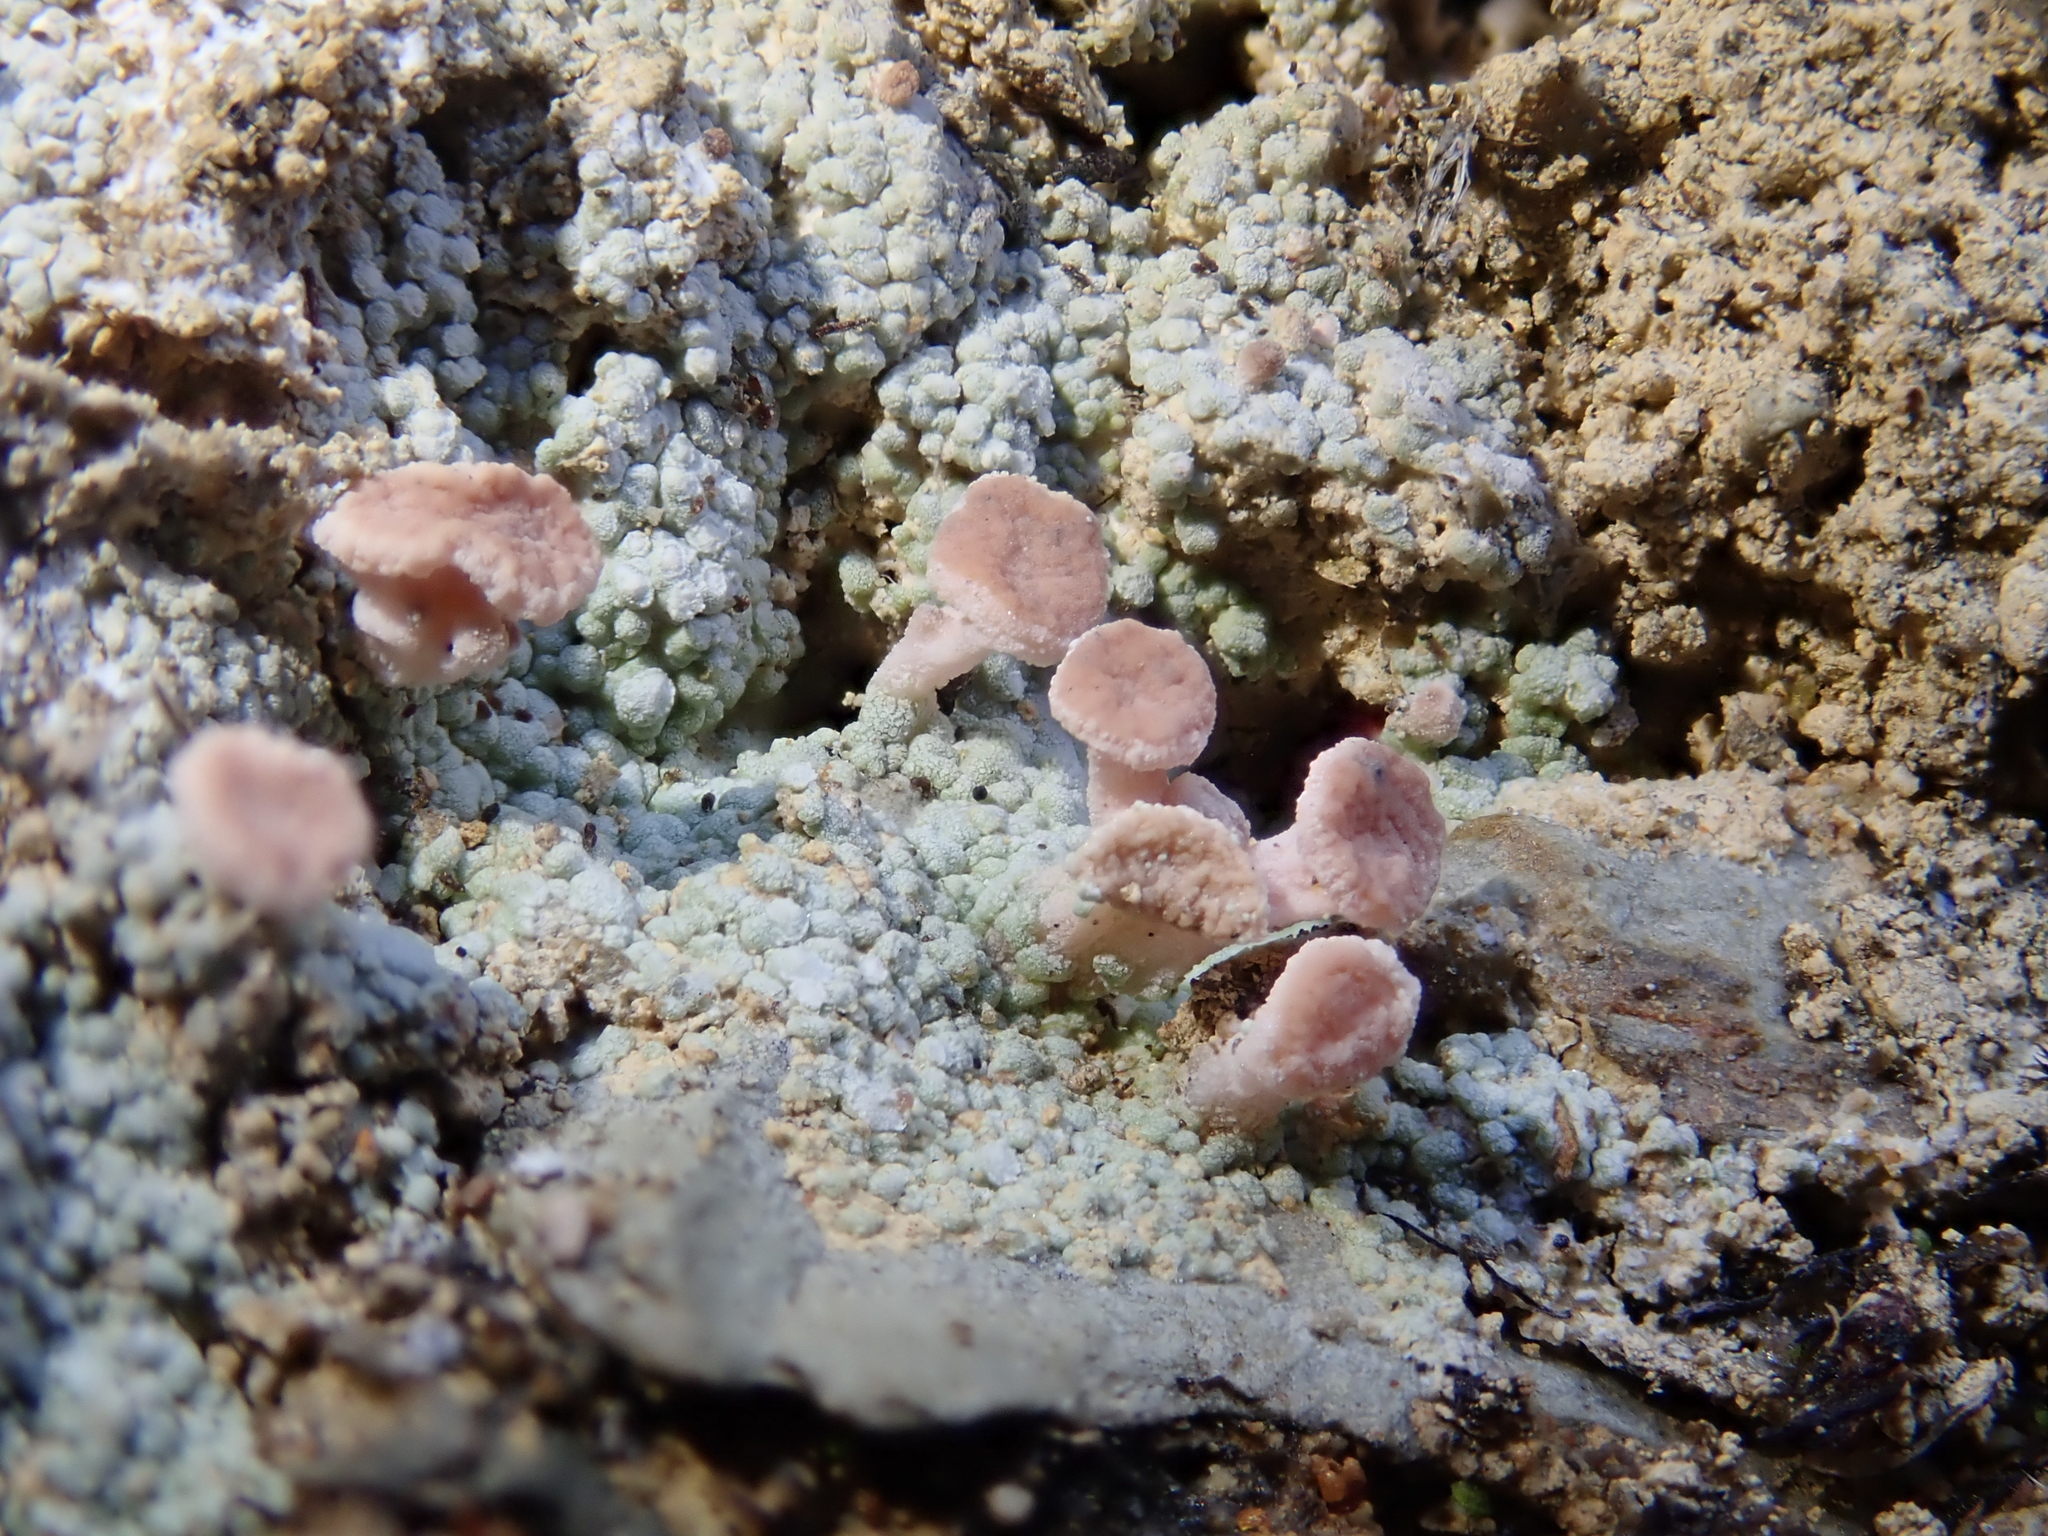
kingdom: Fungi
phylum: Ascomycota
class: Lecanoromycetes
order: Baeomycetales
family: Baeomycetaceae
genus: Baeomyces
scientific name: Baeomyces heteromorphus
